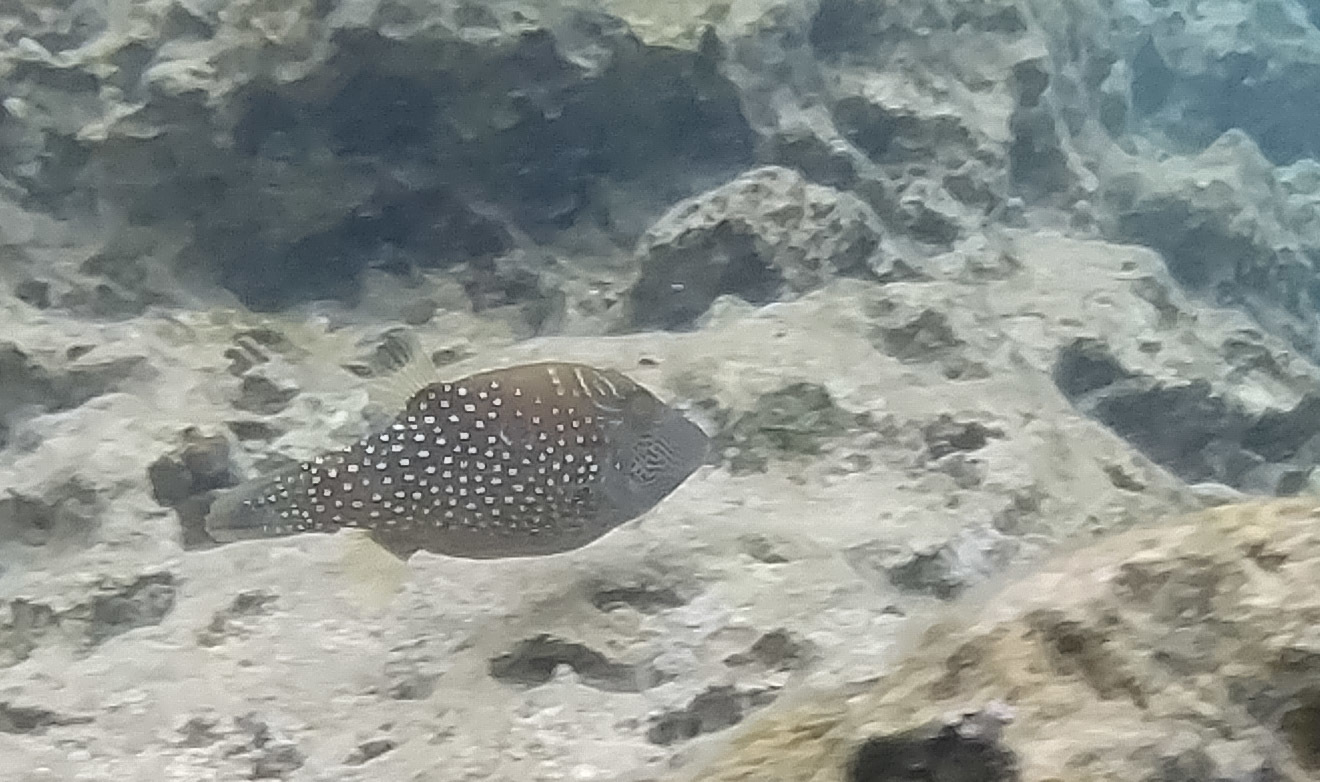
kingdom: Animalia
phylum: Chordata
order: Tetraodontiformes
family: Tetraodontidae
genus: Canthigaster
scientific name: Canthigaster amboinensis
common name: Ambon pufferfish
